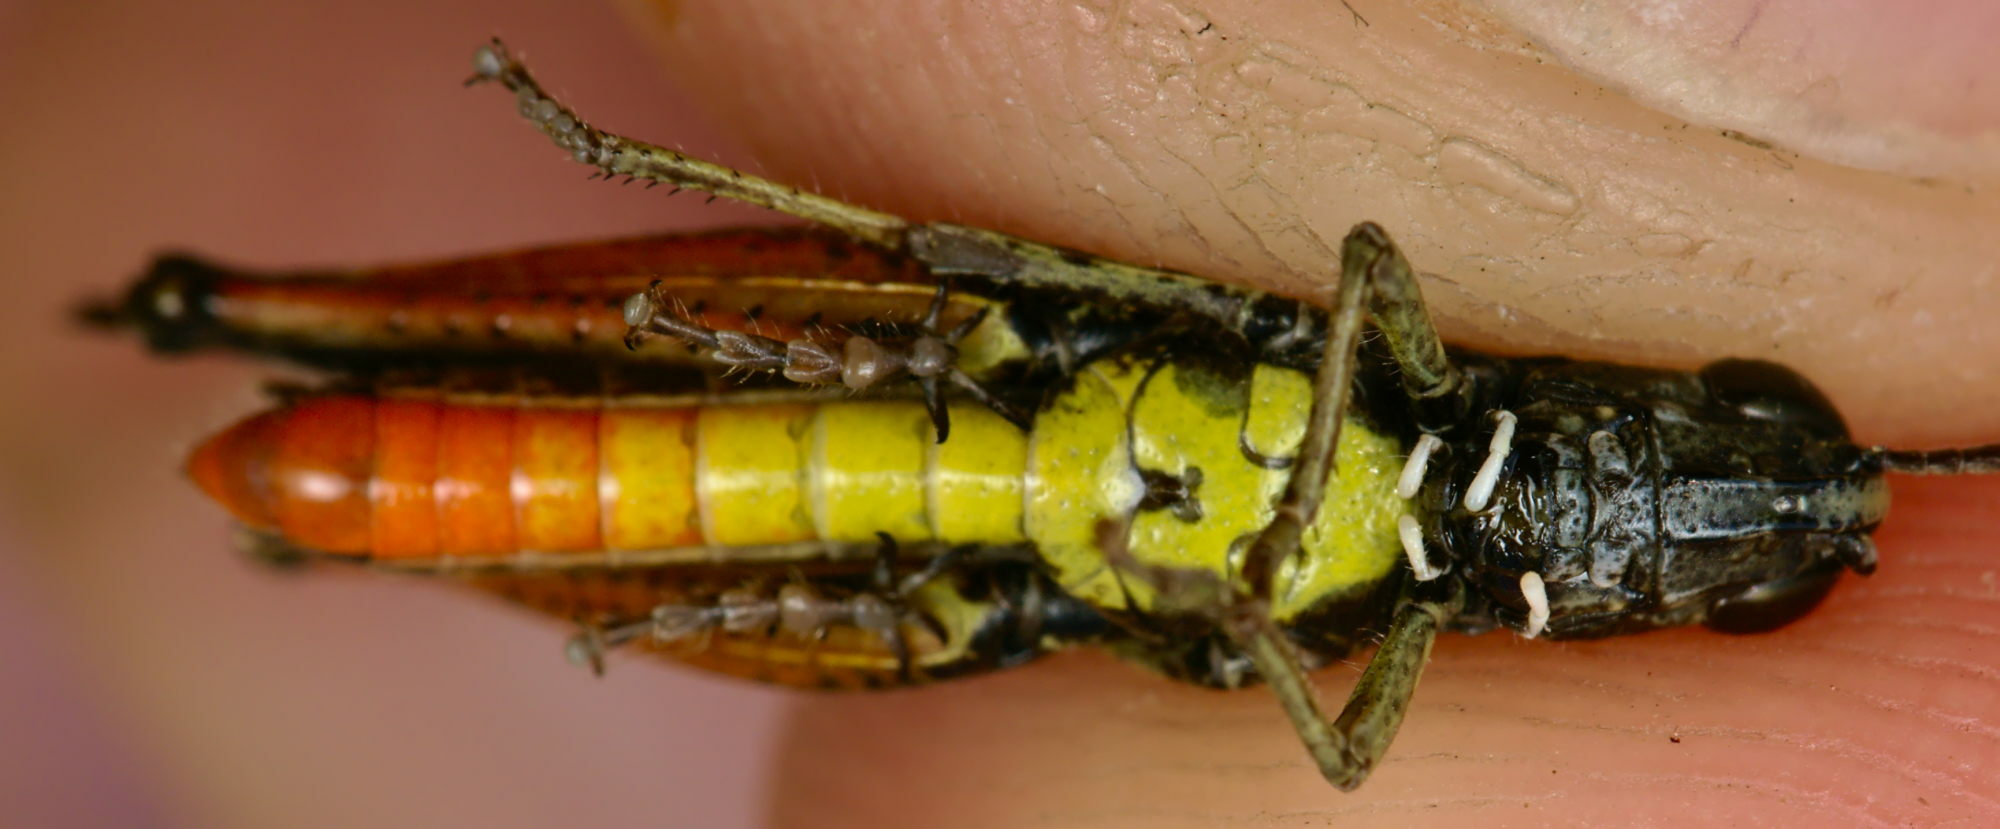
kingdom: Animalia
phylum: Arthropoda
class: Insecta
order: Orthoptera
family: Acrididae
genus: Omocestus
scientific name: Omocestus rufipes
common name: Woodland grasshopper
